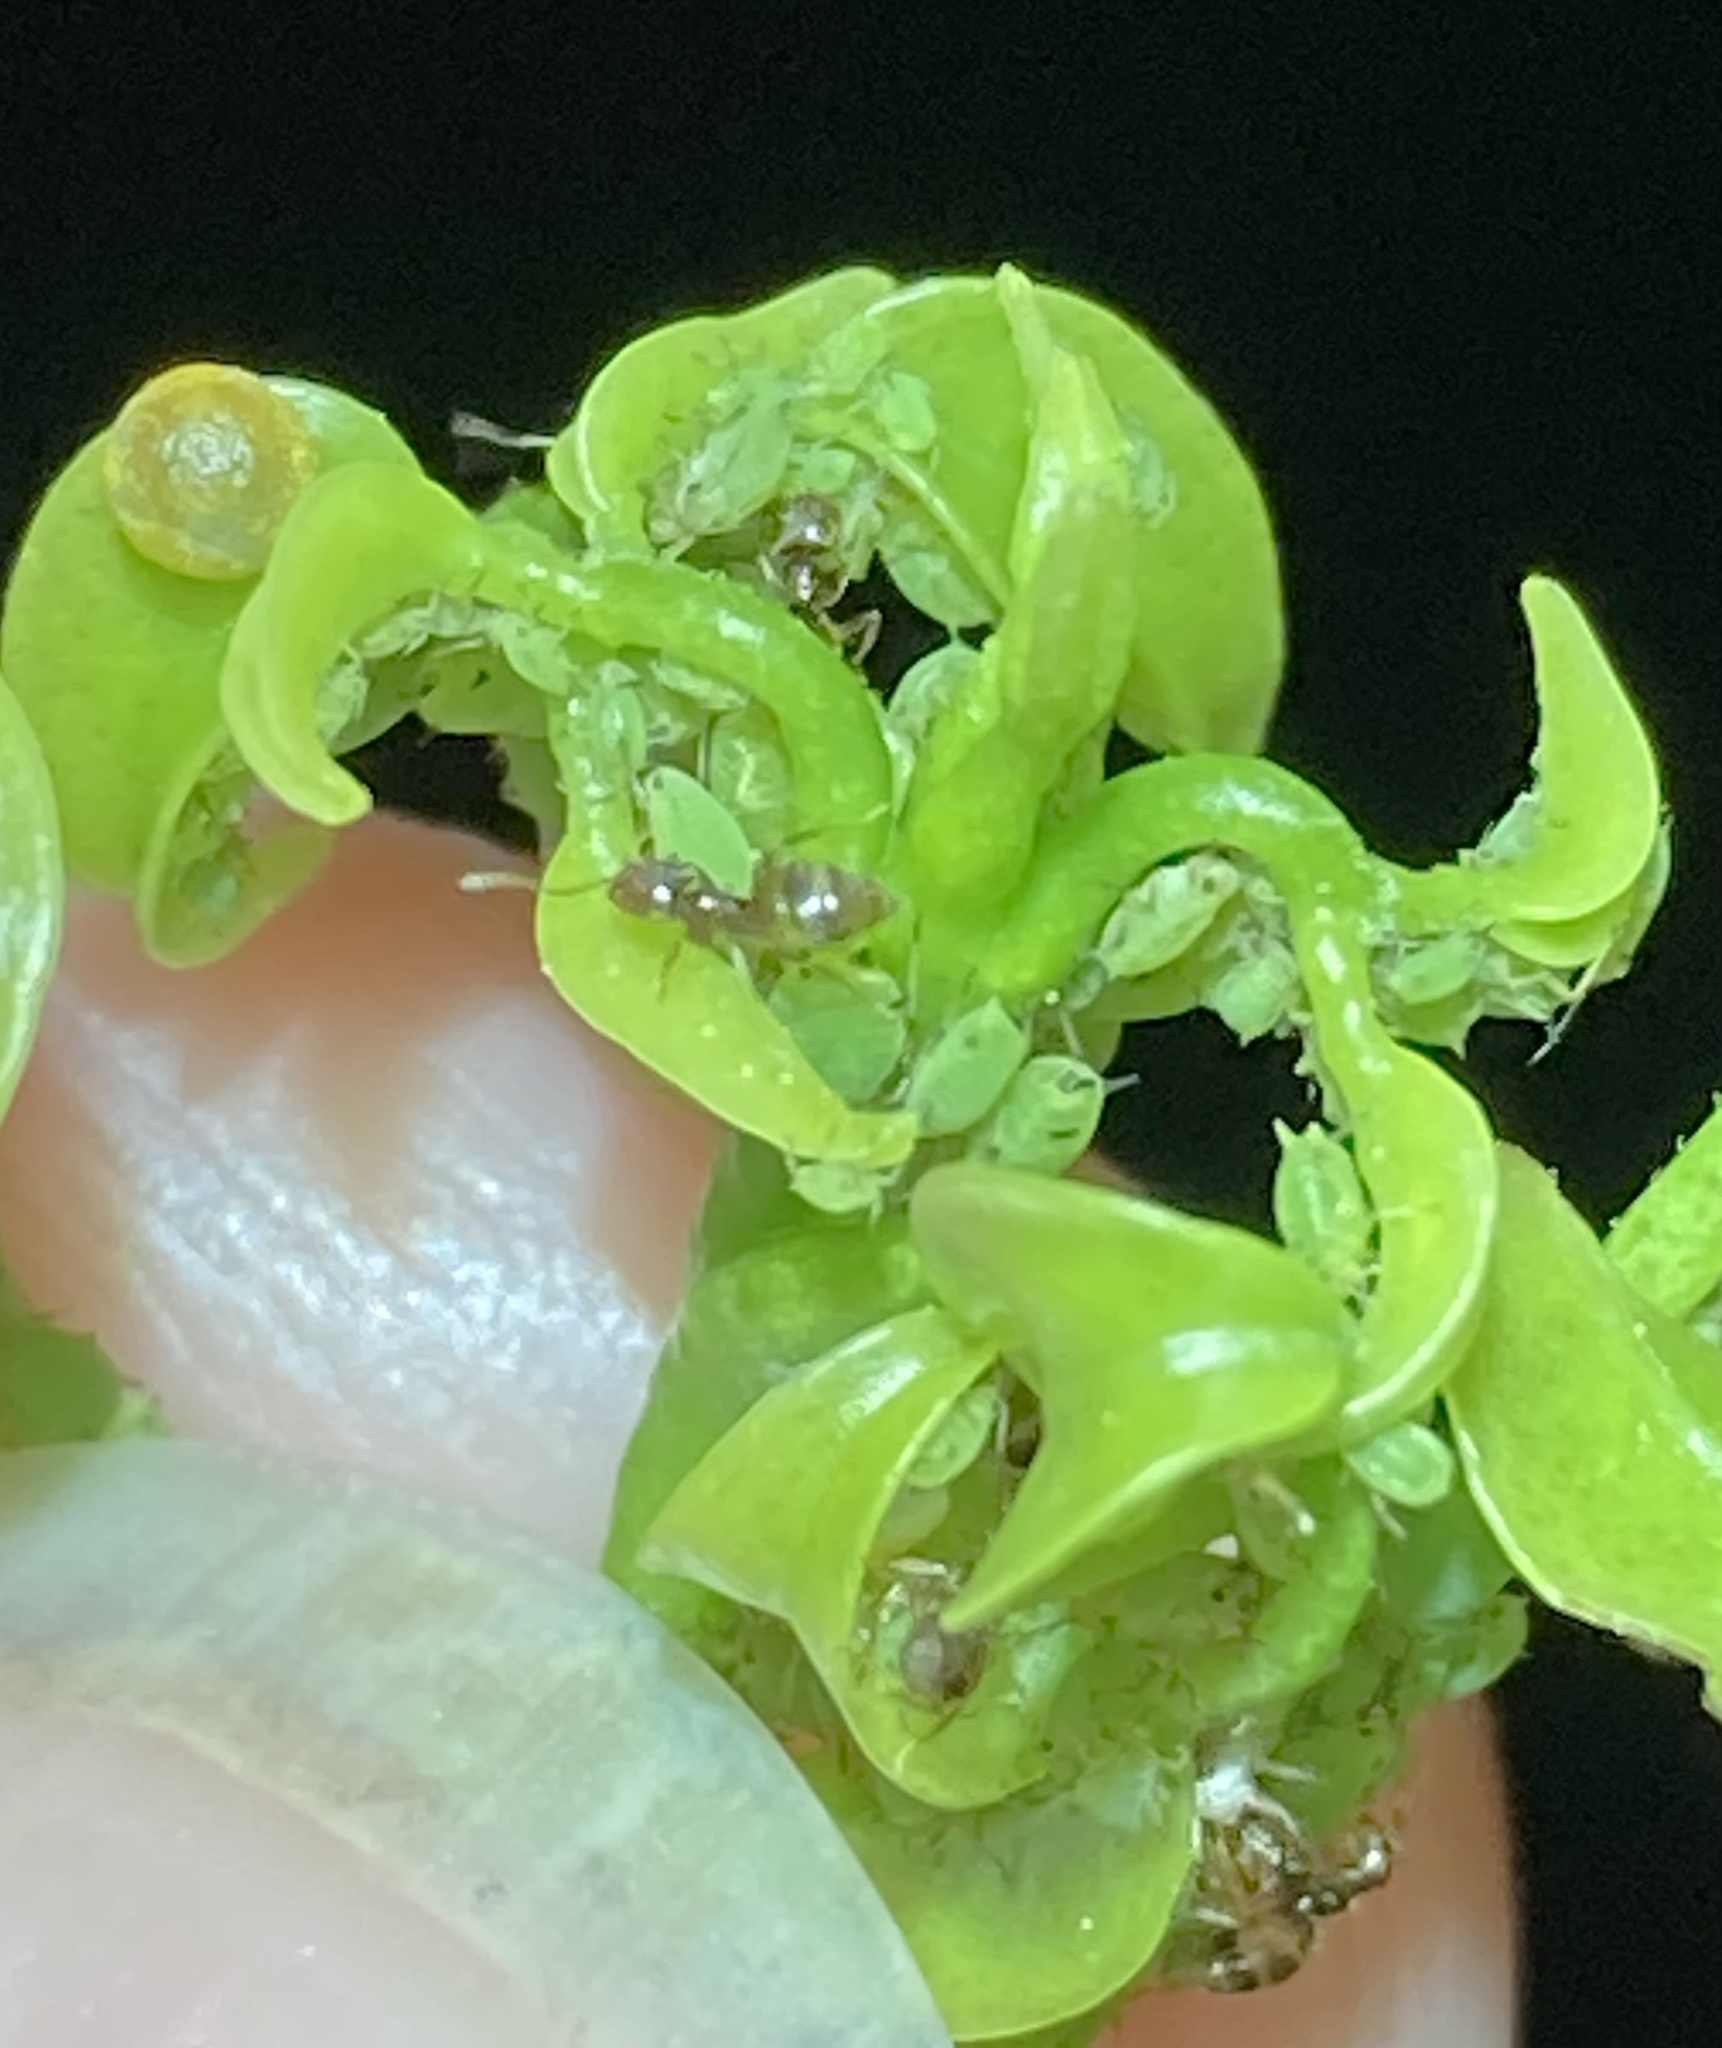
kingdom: Animalia
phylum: Arthropoda
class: Insecta
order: Hymenoptera
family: Formicidae
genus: Brachymyrmex
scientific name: Brachymyrmex obscurior
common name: Obscure rover ant
